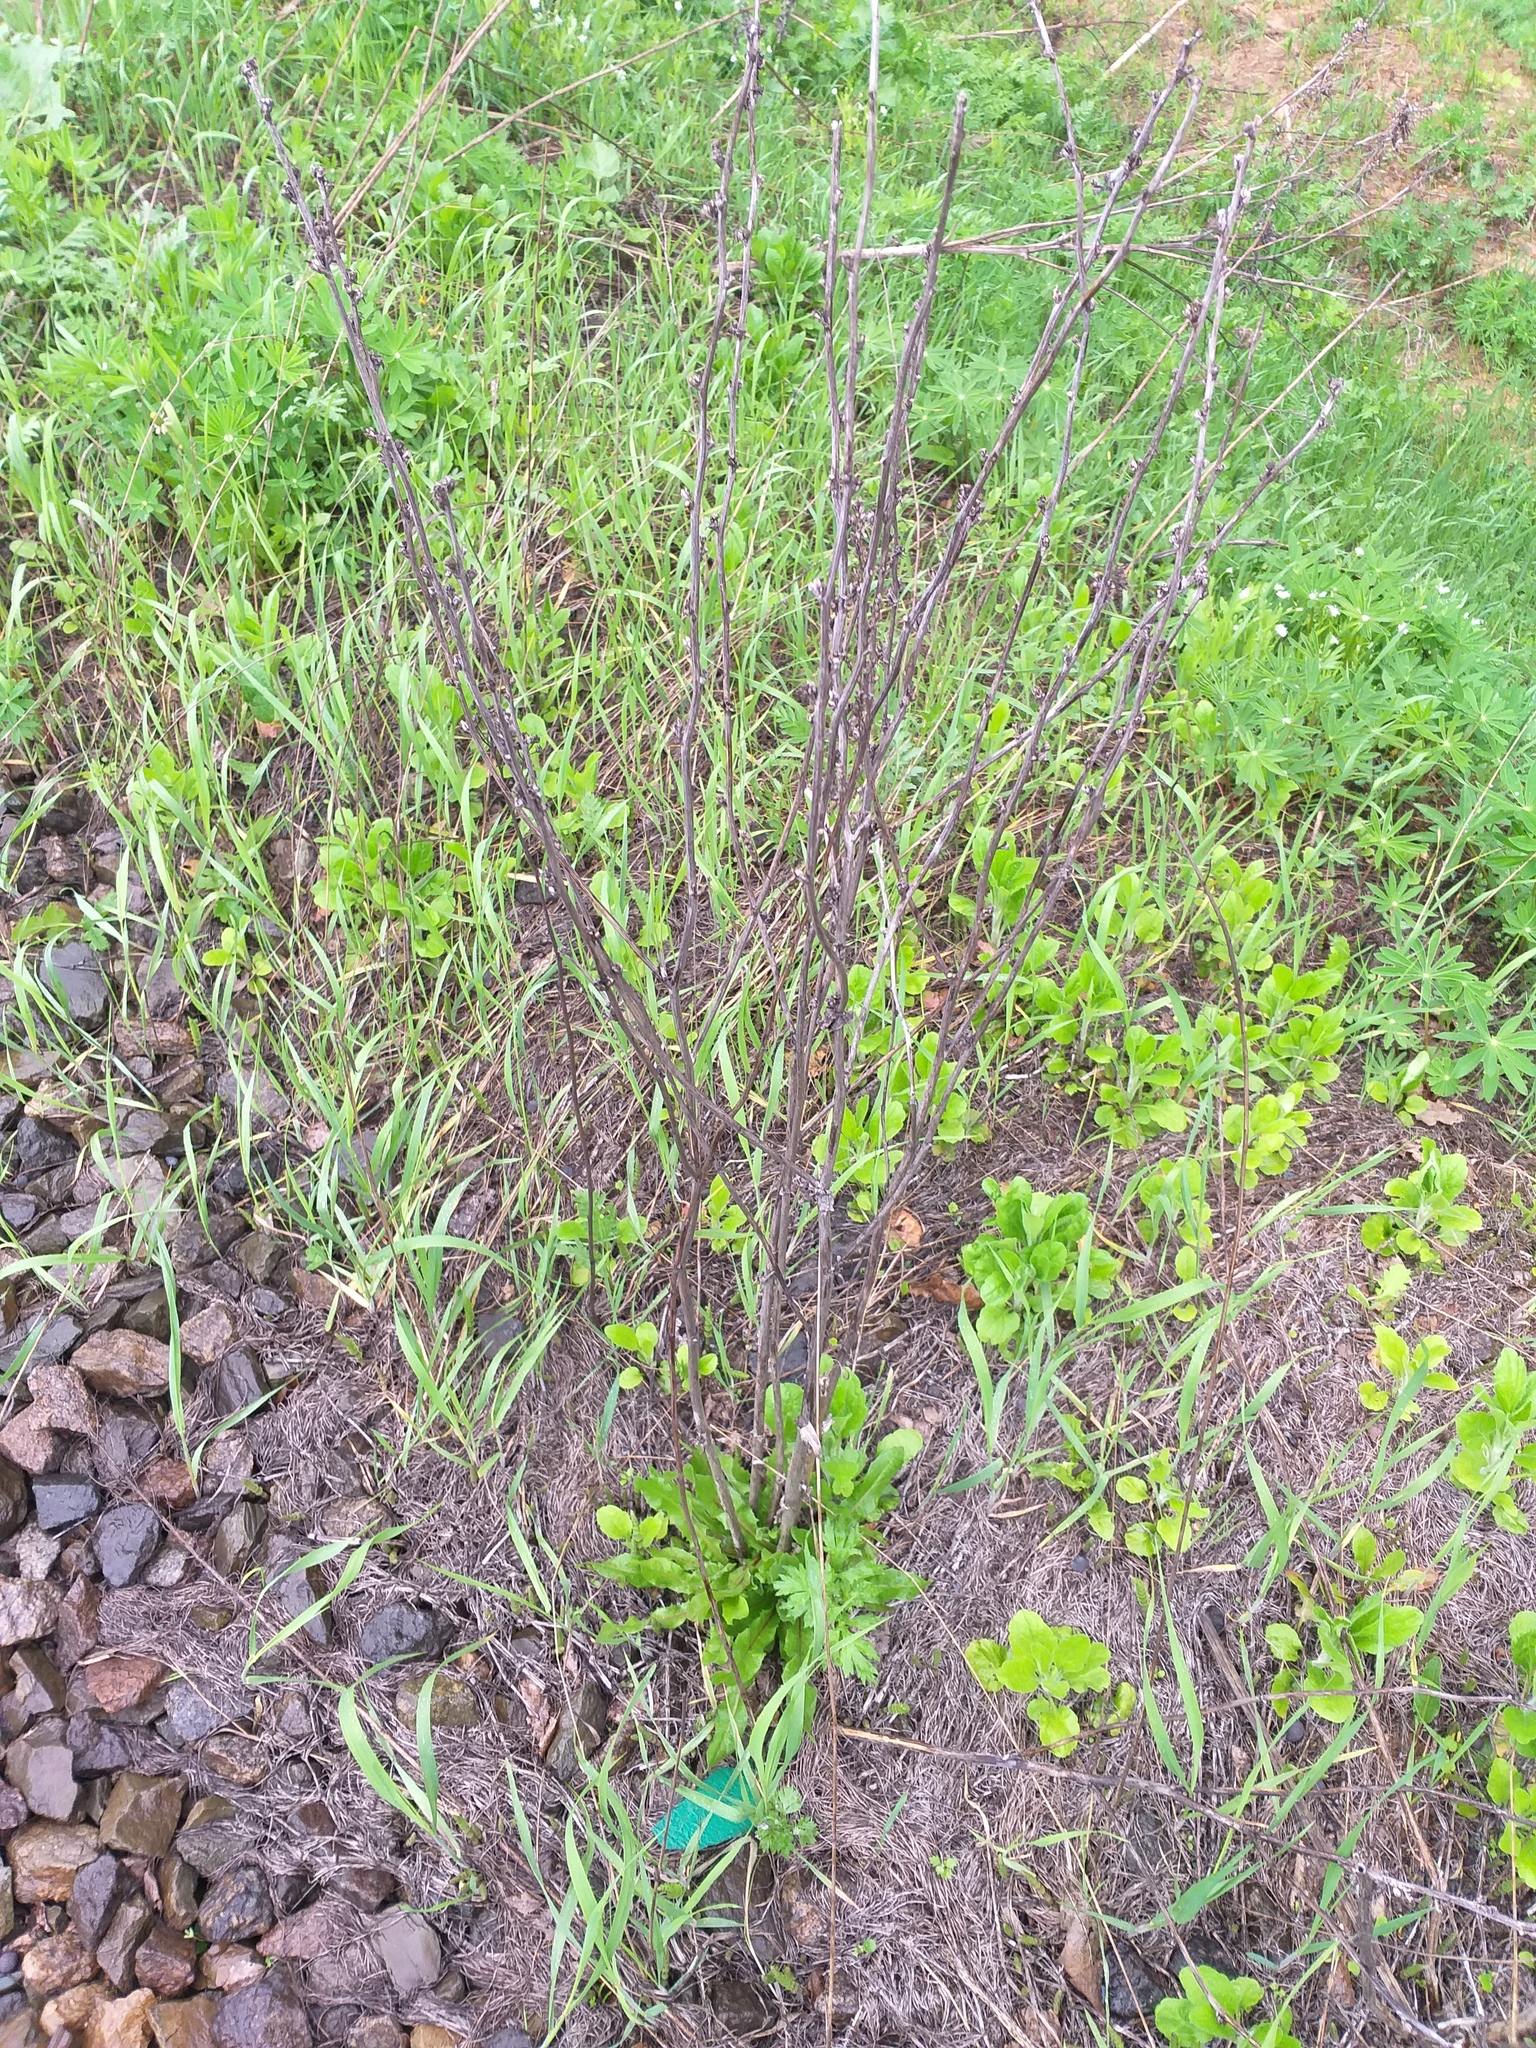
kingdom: Plantae
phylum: Tracheophyta
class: Magnoliopsida
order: Asterales
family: Asteraceae
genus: Cichorium
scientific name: Cichorium intybus
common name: Chicory
